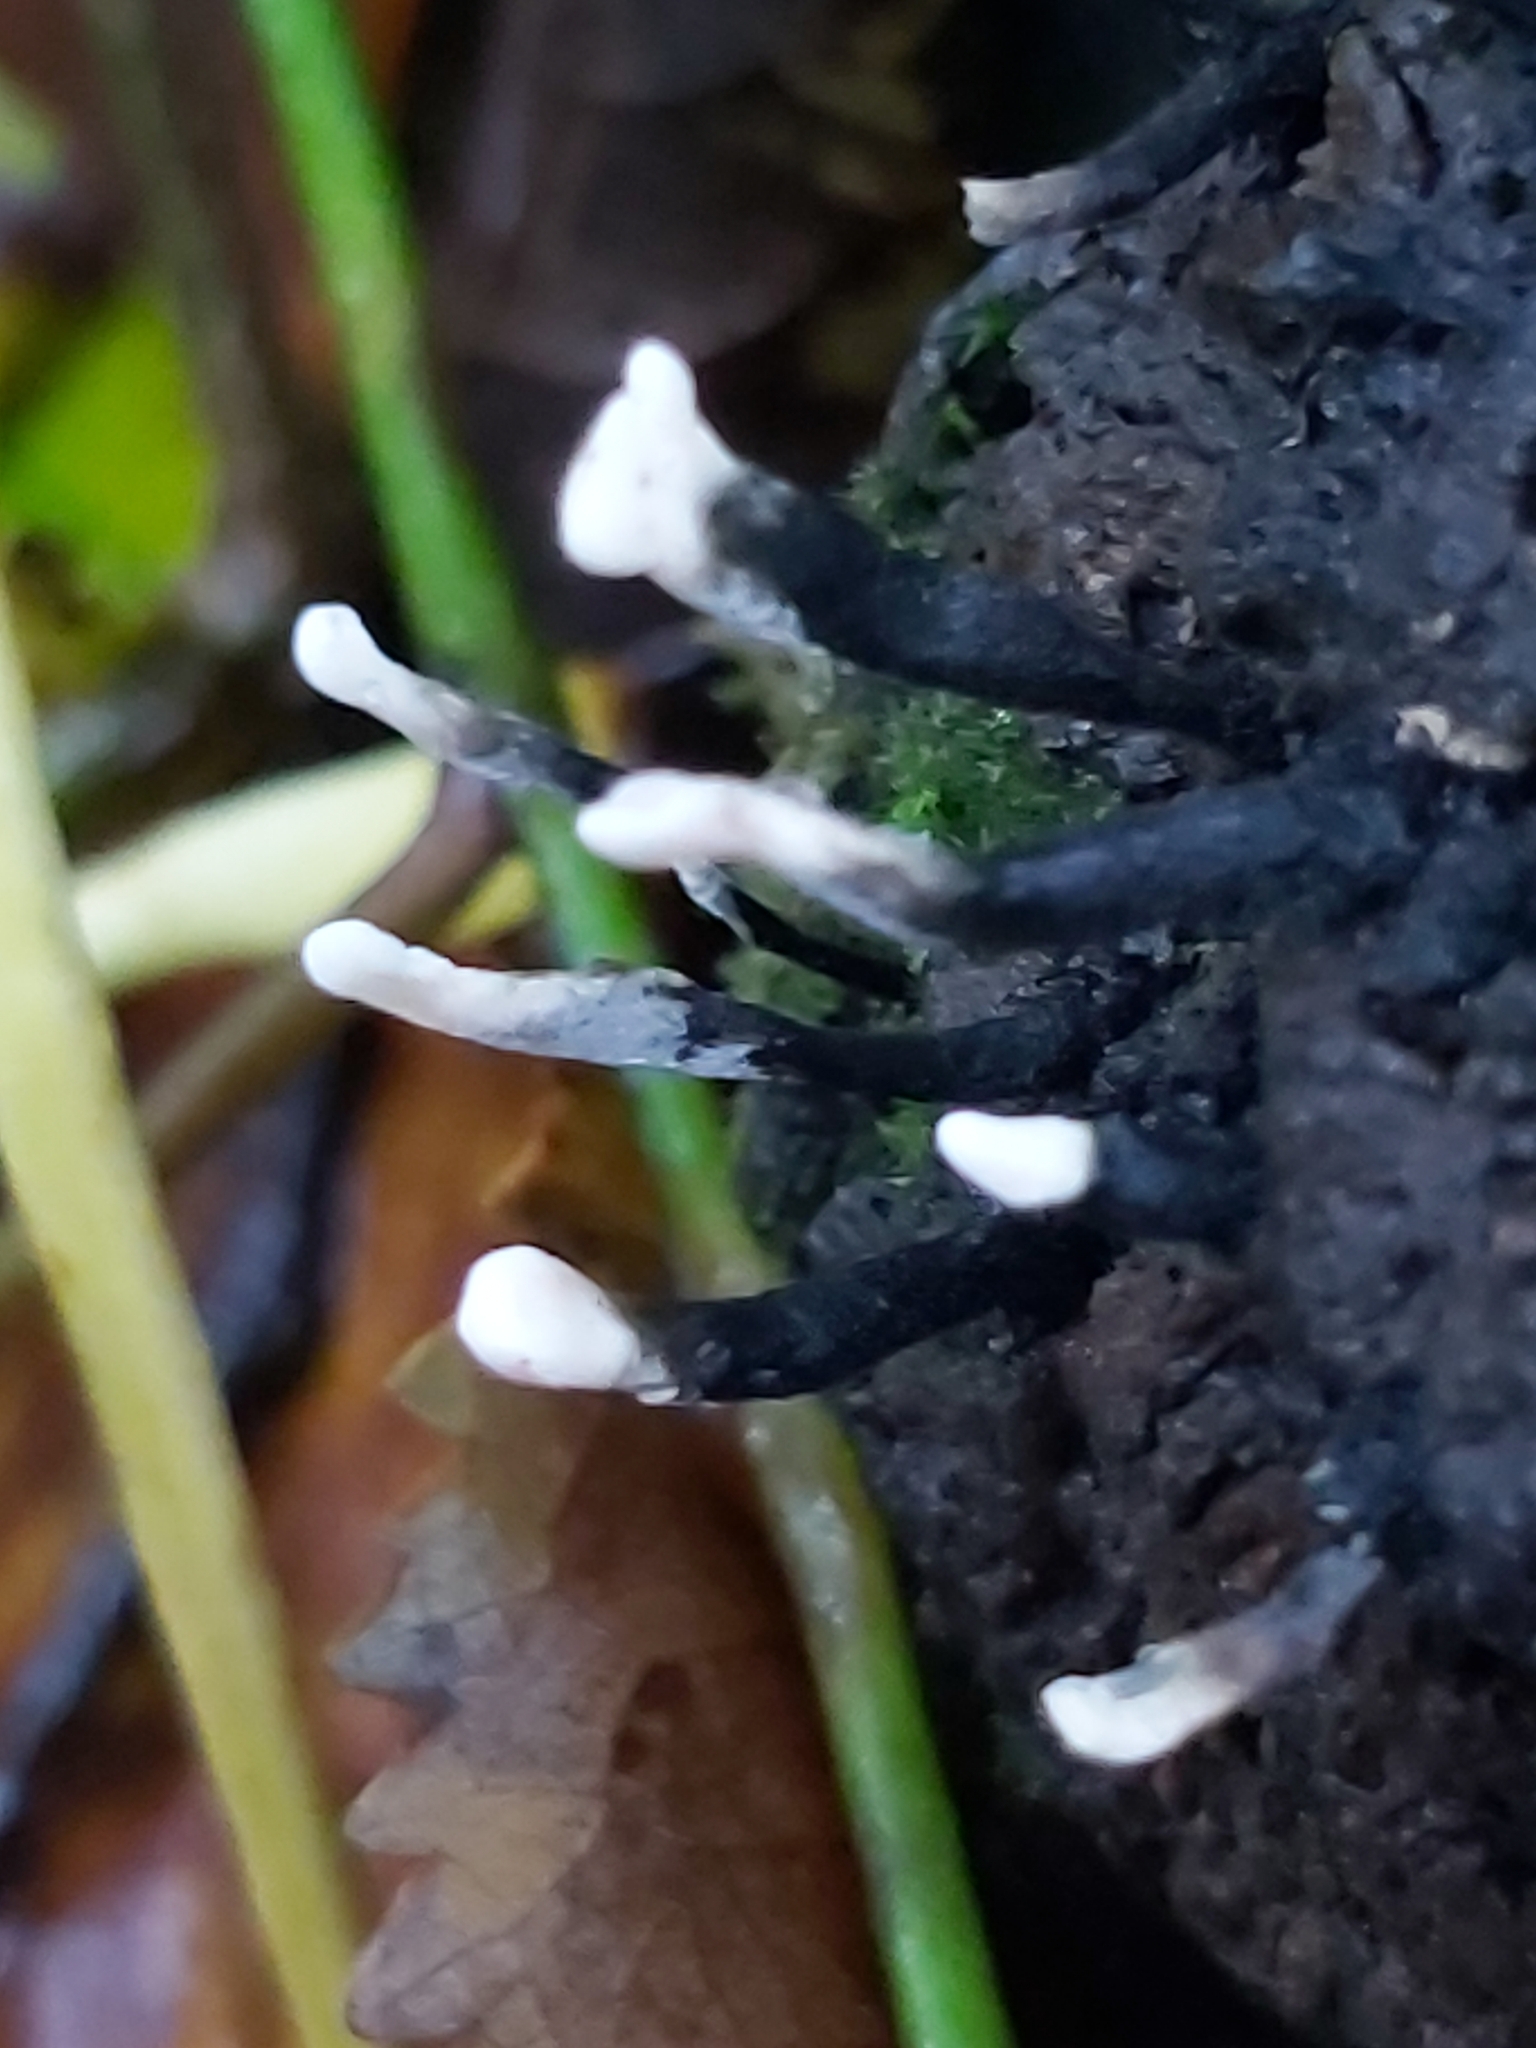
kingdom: Fungi
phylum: Ascomycota
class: Sordariomycetes
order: Xylariales
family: Xylariaceae
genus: Xylaria
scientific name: Xylaria hypoxylon
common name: Candle-snuff fungus
